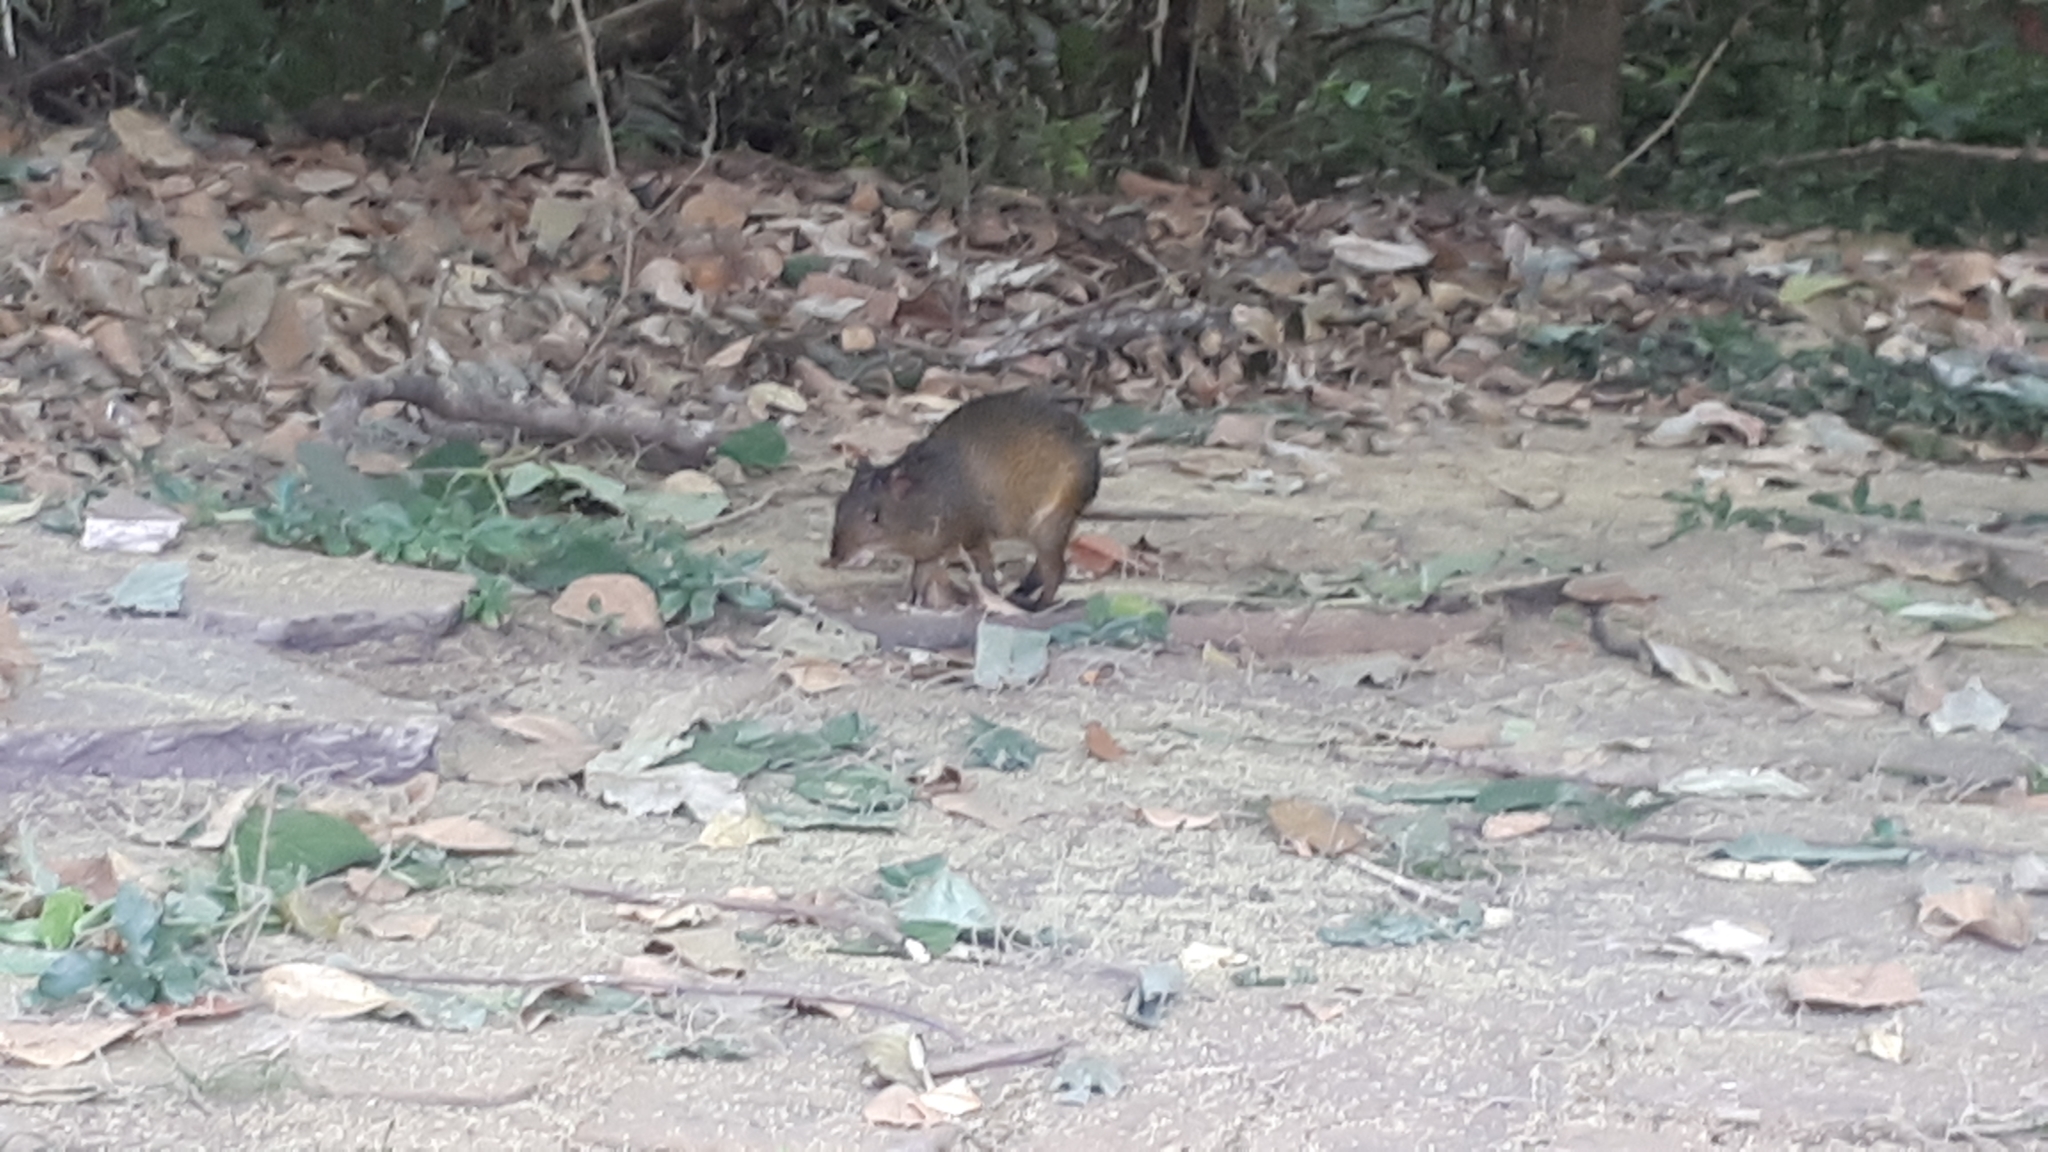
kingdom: Animalia
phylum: Chordata
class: Mammalia
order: Rodentia
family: Dasyproctidae
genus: Dasyprocta
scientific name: Dasyprocta azarae
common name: Azara's agouti
